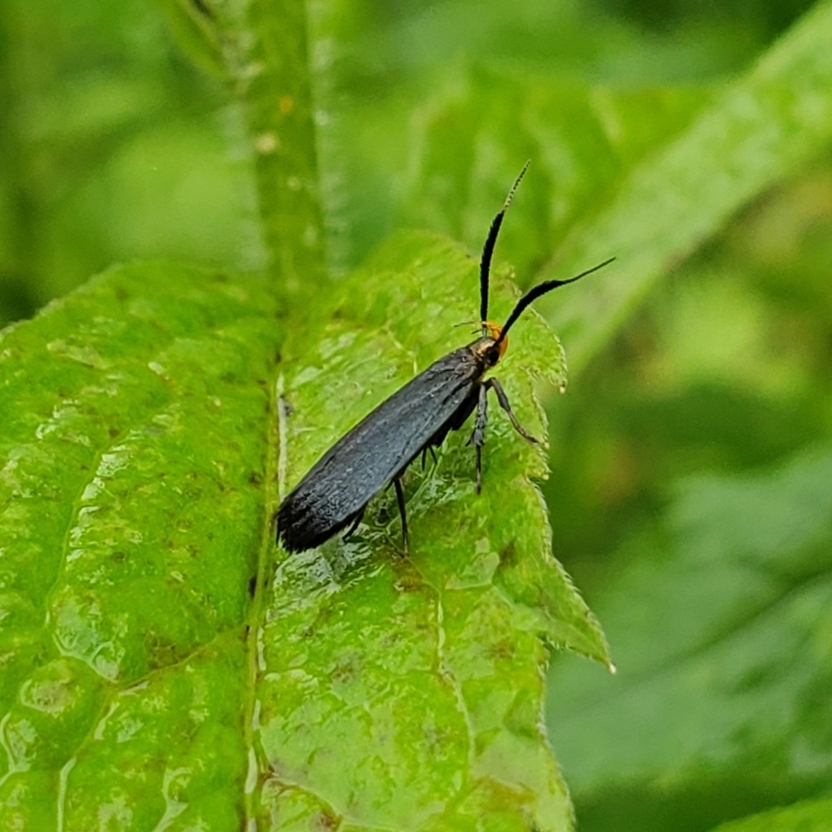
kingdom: Animalia
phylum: Arthropoda
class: Insecta
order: Lepidoptera
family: Gelechiidae
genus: Dichomeris
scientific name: Dichomeris nonstrigella
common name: Little devil moth
